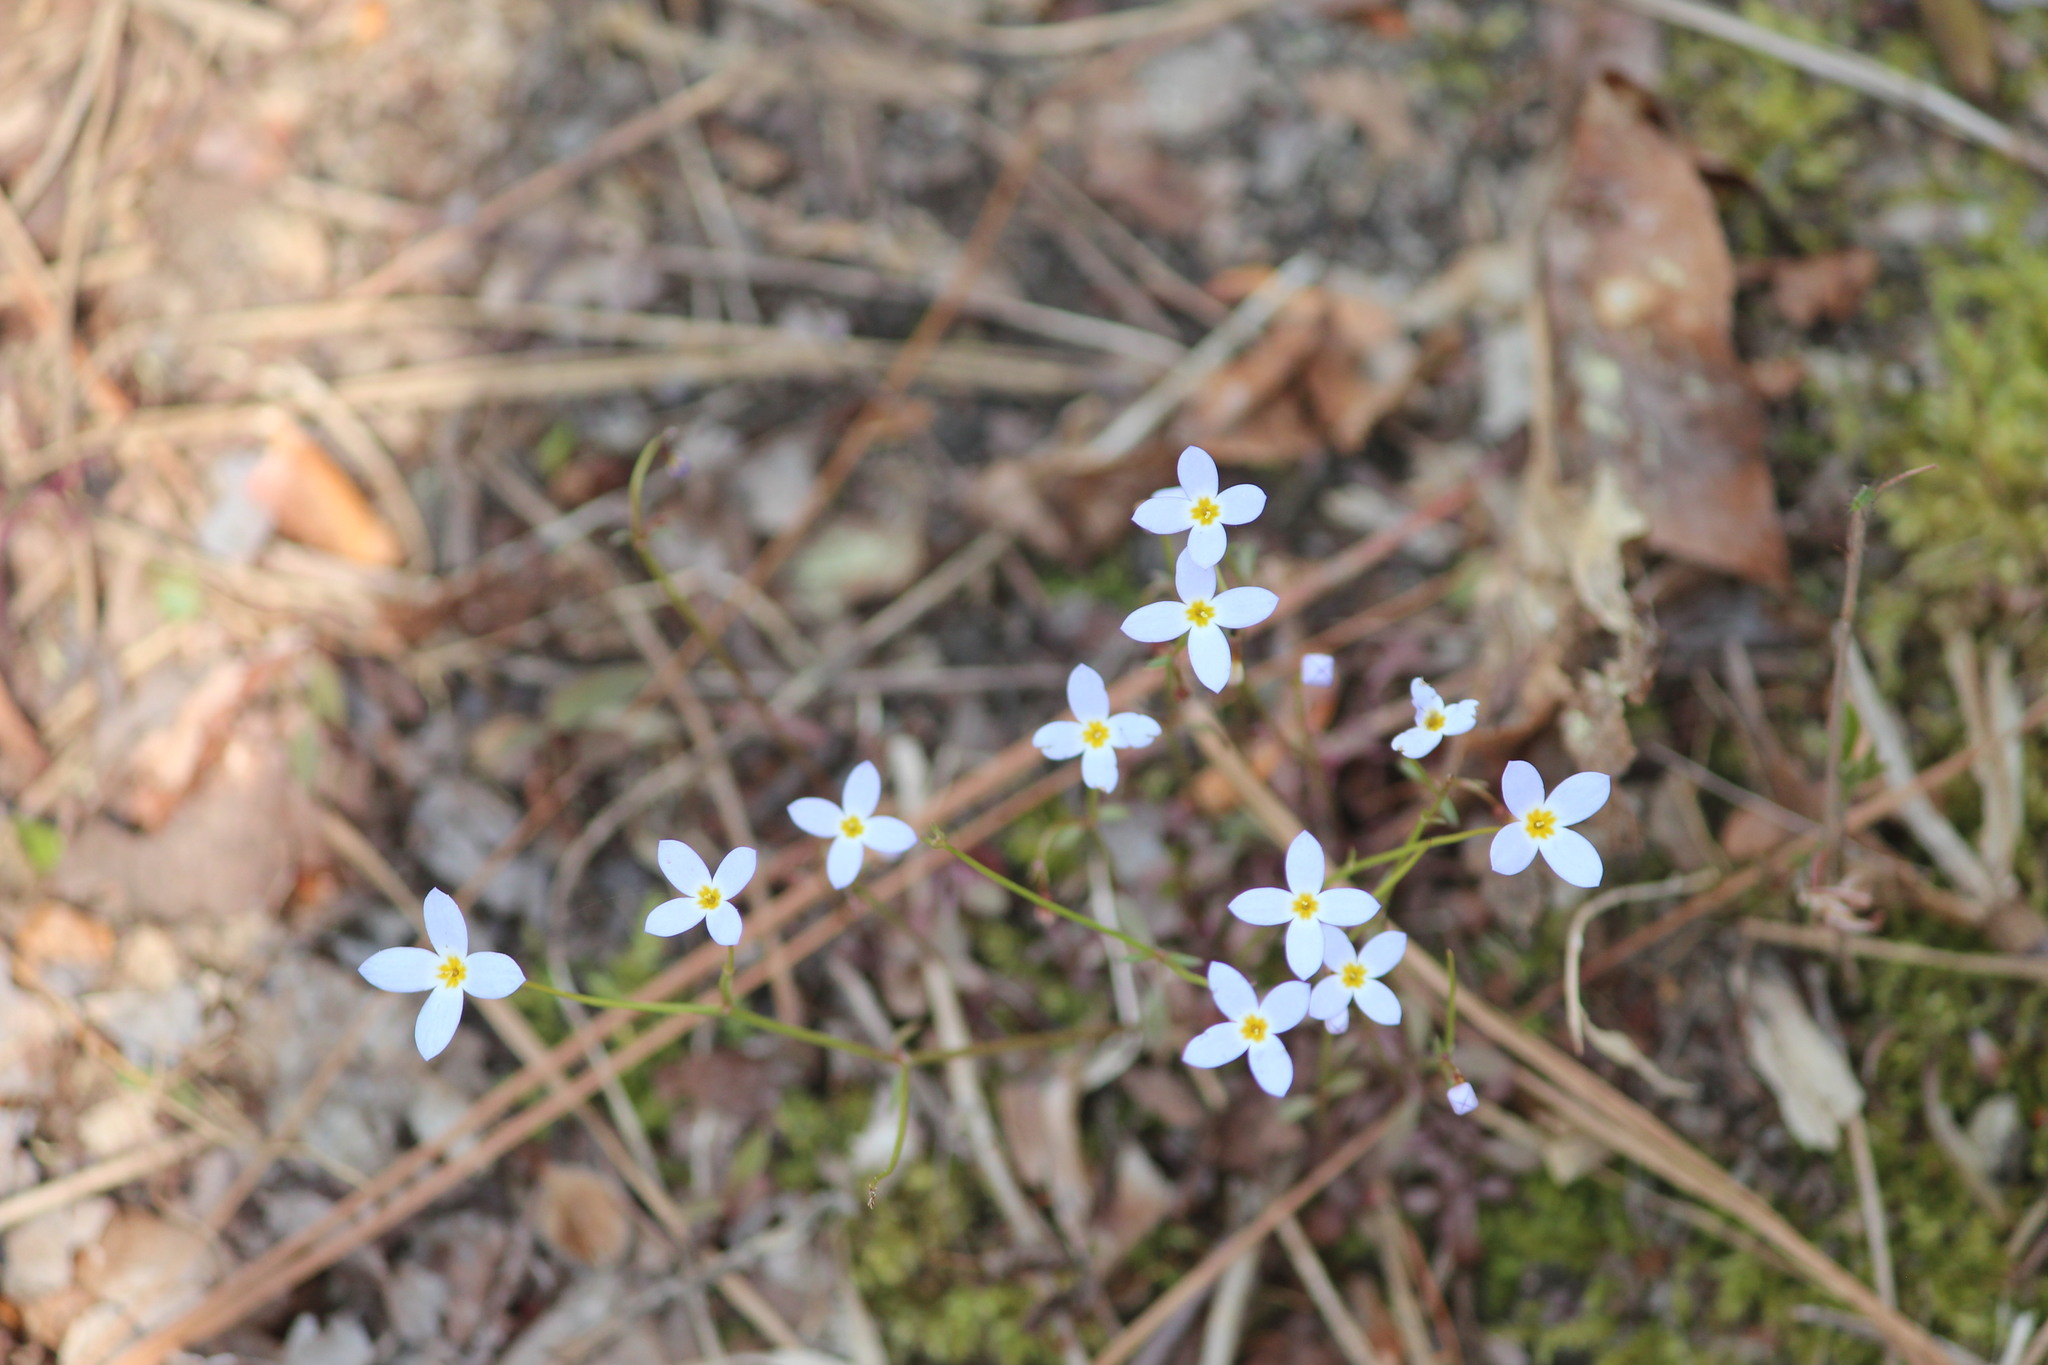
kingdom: Plantae
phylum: Tracheophyta
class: Magnoliopsida
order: Gentianales
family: Rubiaceae
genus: Houstonia
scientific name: Houstonia caerulea
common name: Bluets
